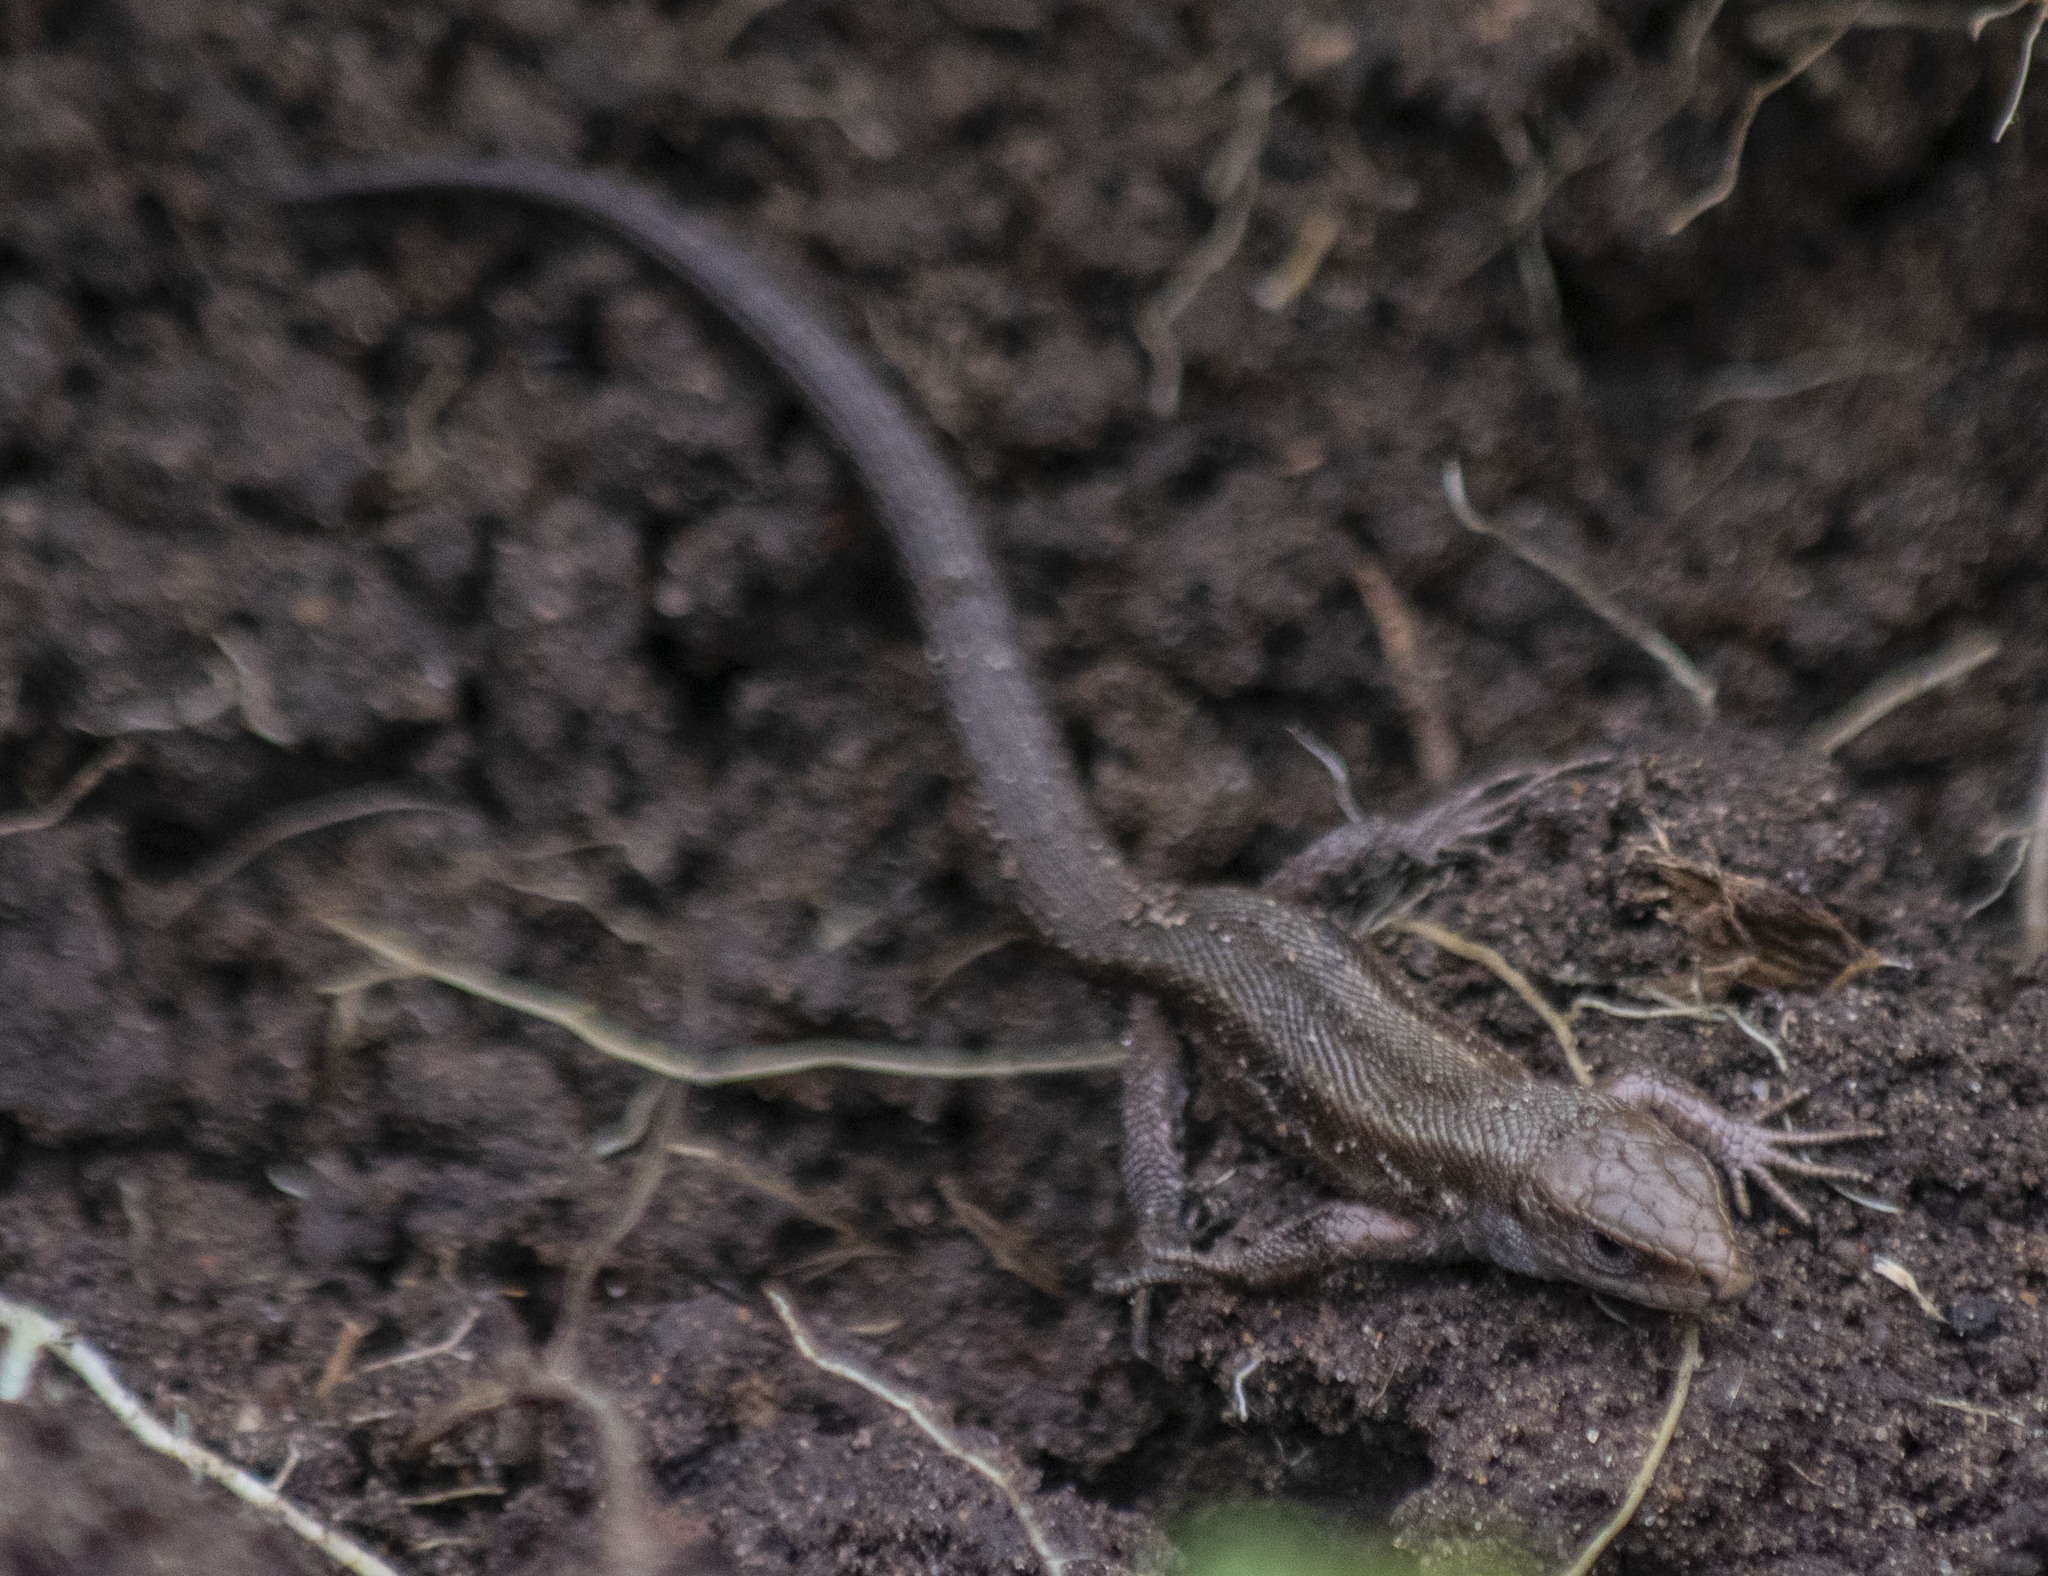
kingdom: Animalia
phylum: Chordata
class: Squamata
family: Lacertidae
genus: Zootoca
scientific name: Zootoca vivipara
